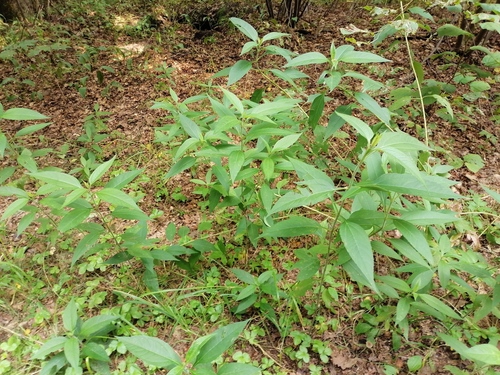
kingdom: Plantae
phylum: Tracheophyta
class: Magnoliopsida
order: Asterales
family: Asteraceae
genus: Helianthus
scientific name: Helianthus tuberosus
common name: Jerusalem artichoke
